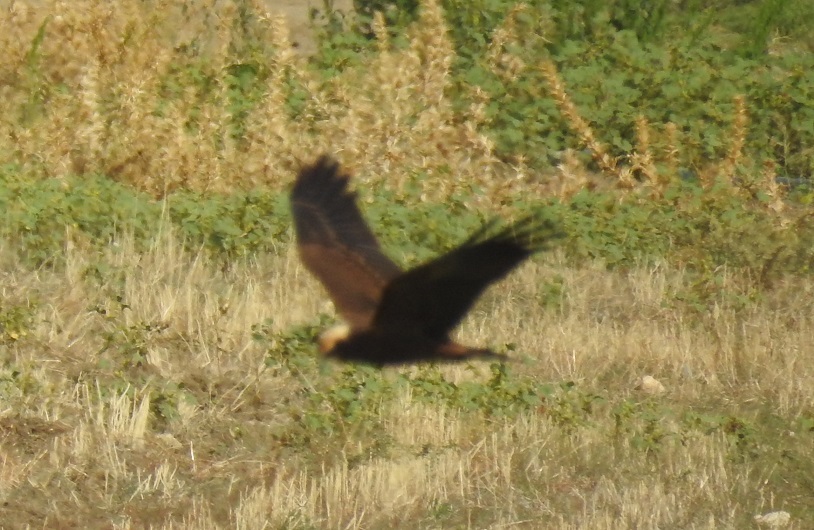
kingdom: Animalia
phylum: Chordata
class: Aves
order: Accipitriformes
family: Accipitridae
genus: Circus
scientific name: Circus aeruginosus
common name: Western marsh harrier
